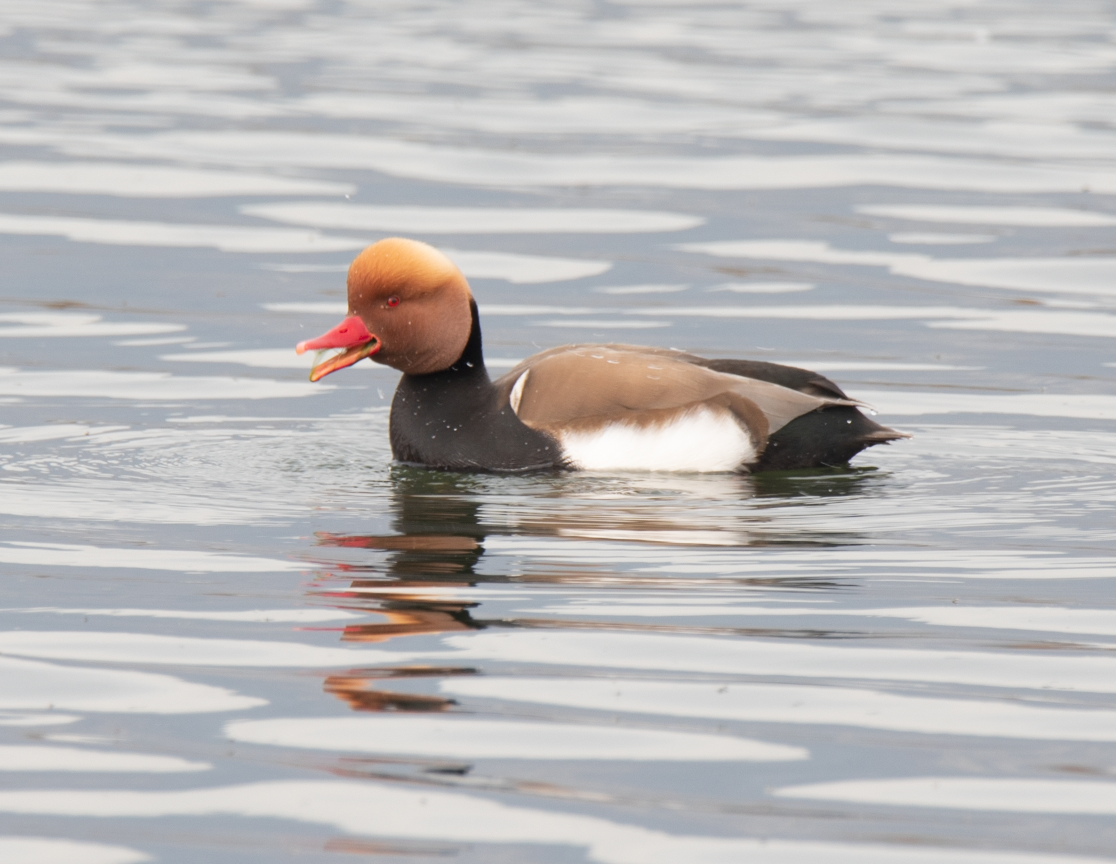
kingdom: Animalia
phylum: Chordata
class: Aves
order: Anseriformes
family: Anatidae
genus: Netta
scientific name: Netta rufina
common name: Red-crested pochard
